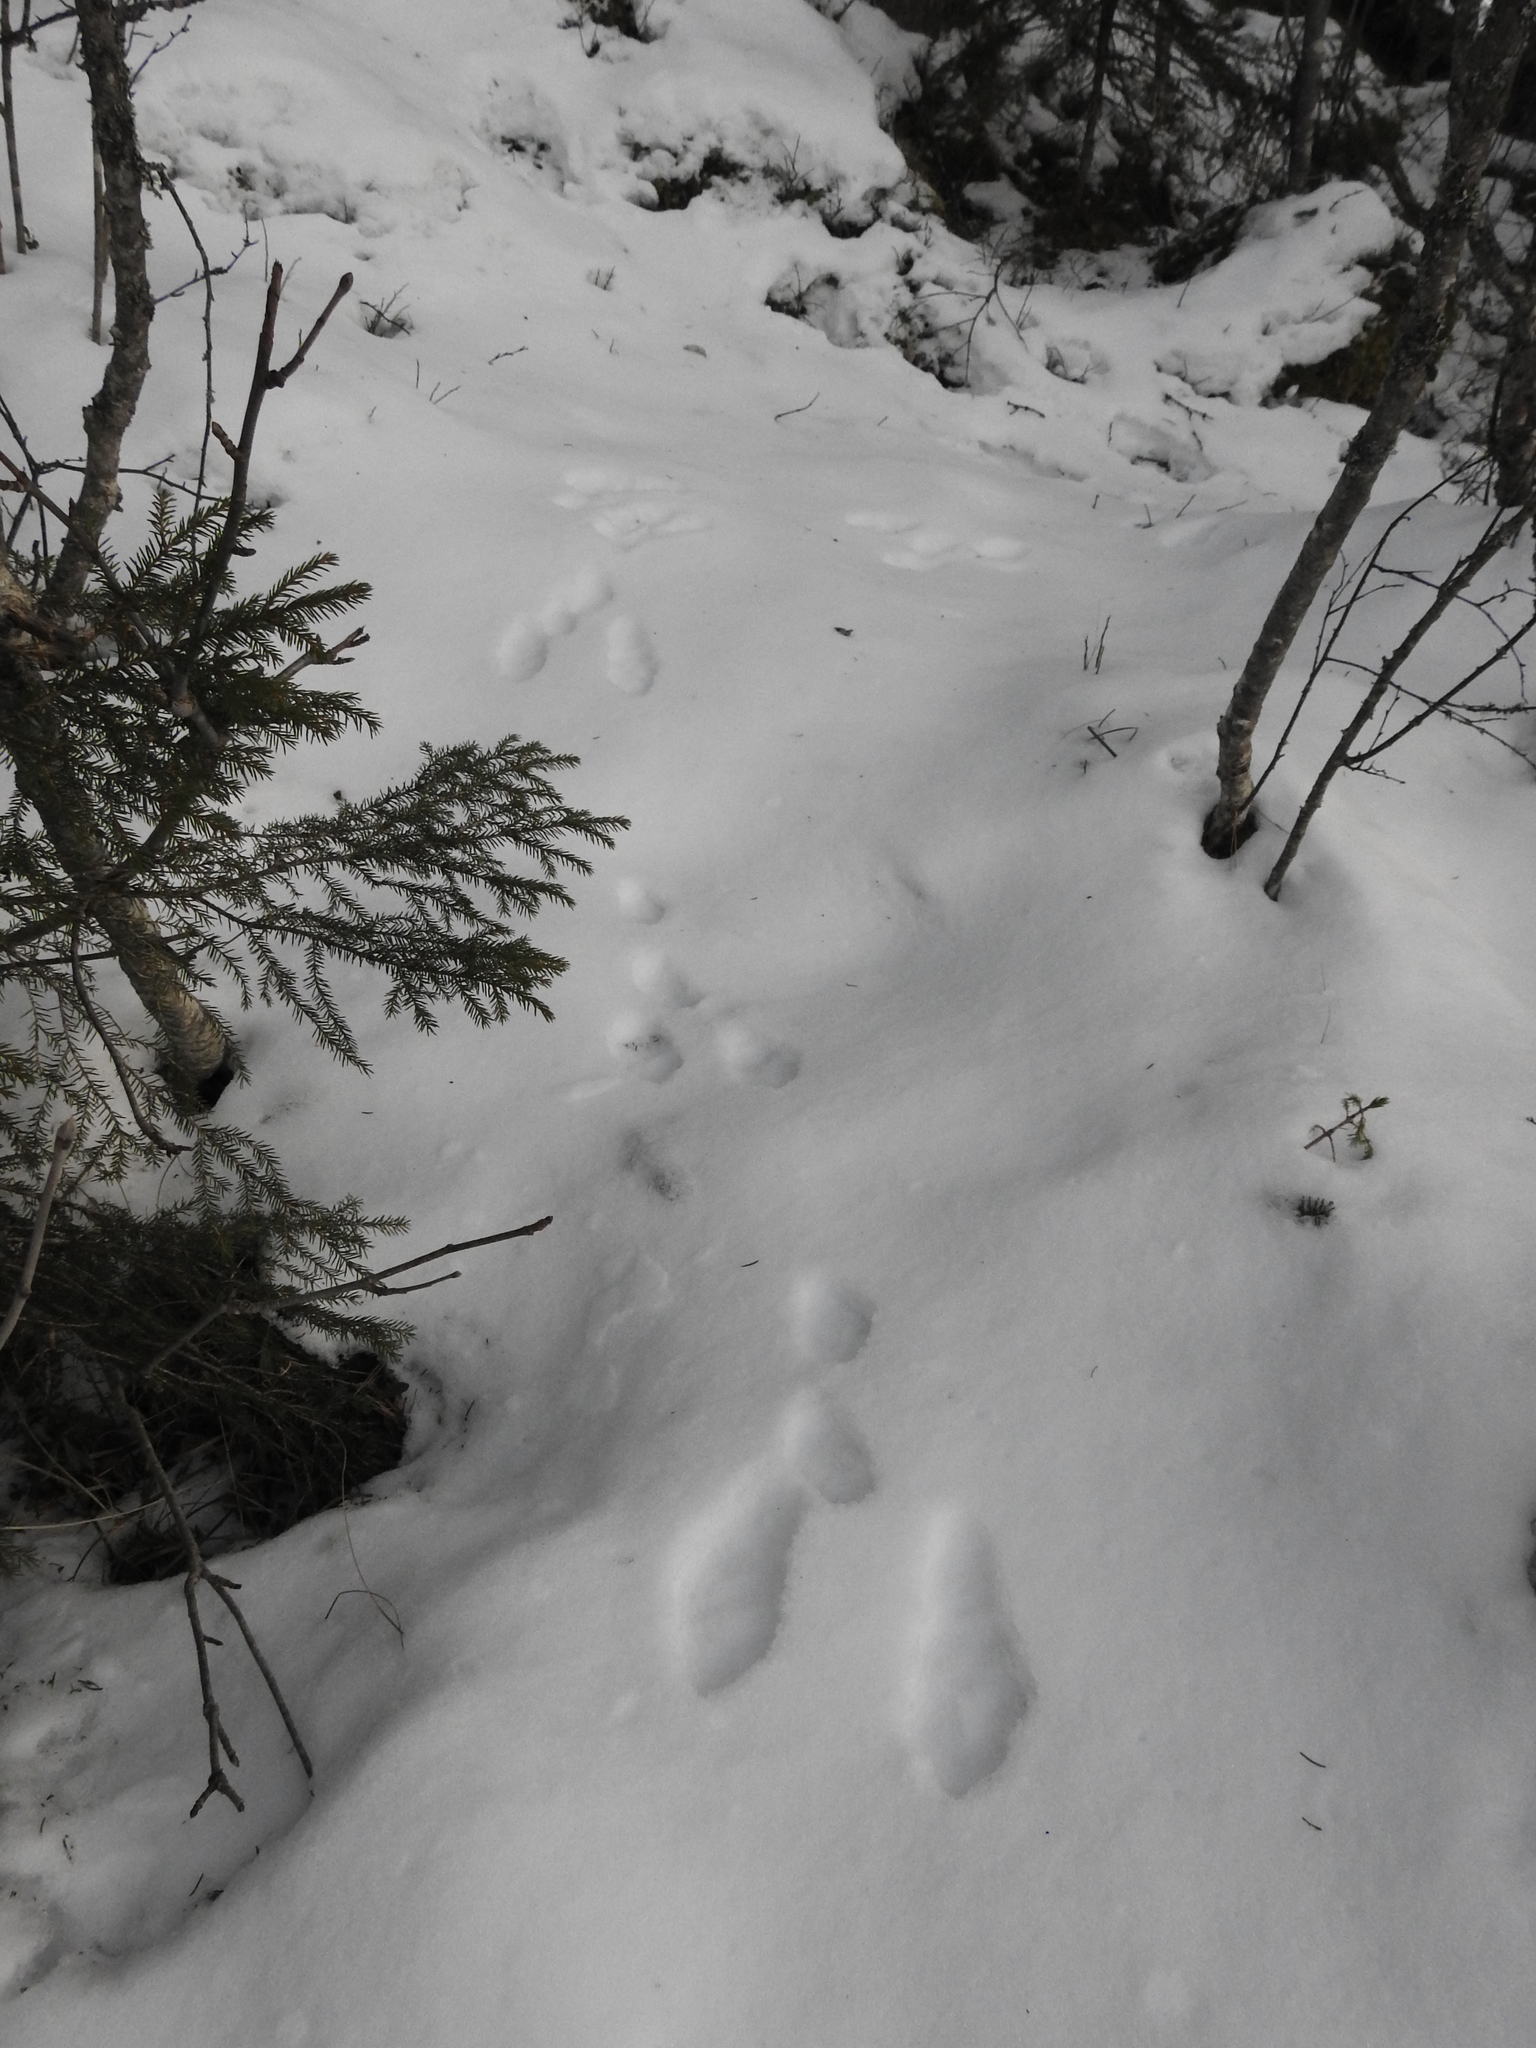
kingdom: Animalia
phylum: Chordata
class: Mammalia
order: Lagomorpha
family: Leporidae
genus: Lepus
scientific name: Lepus timidus
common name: Mountain hare
